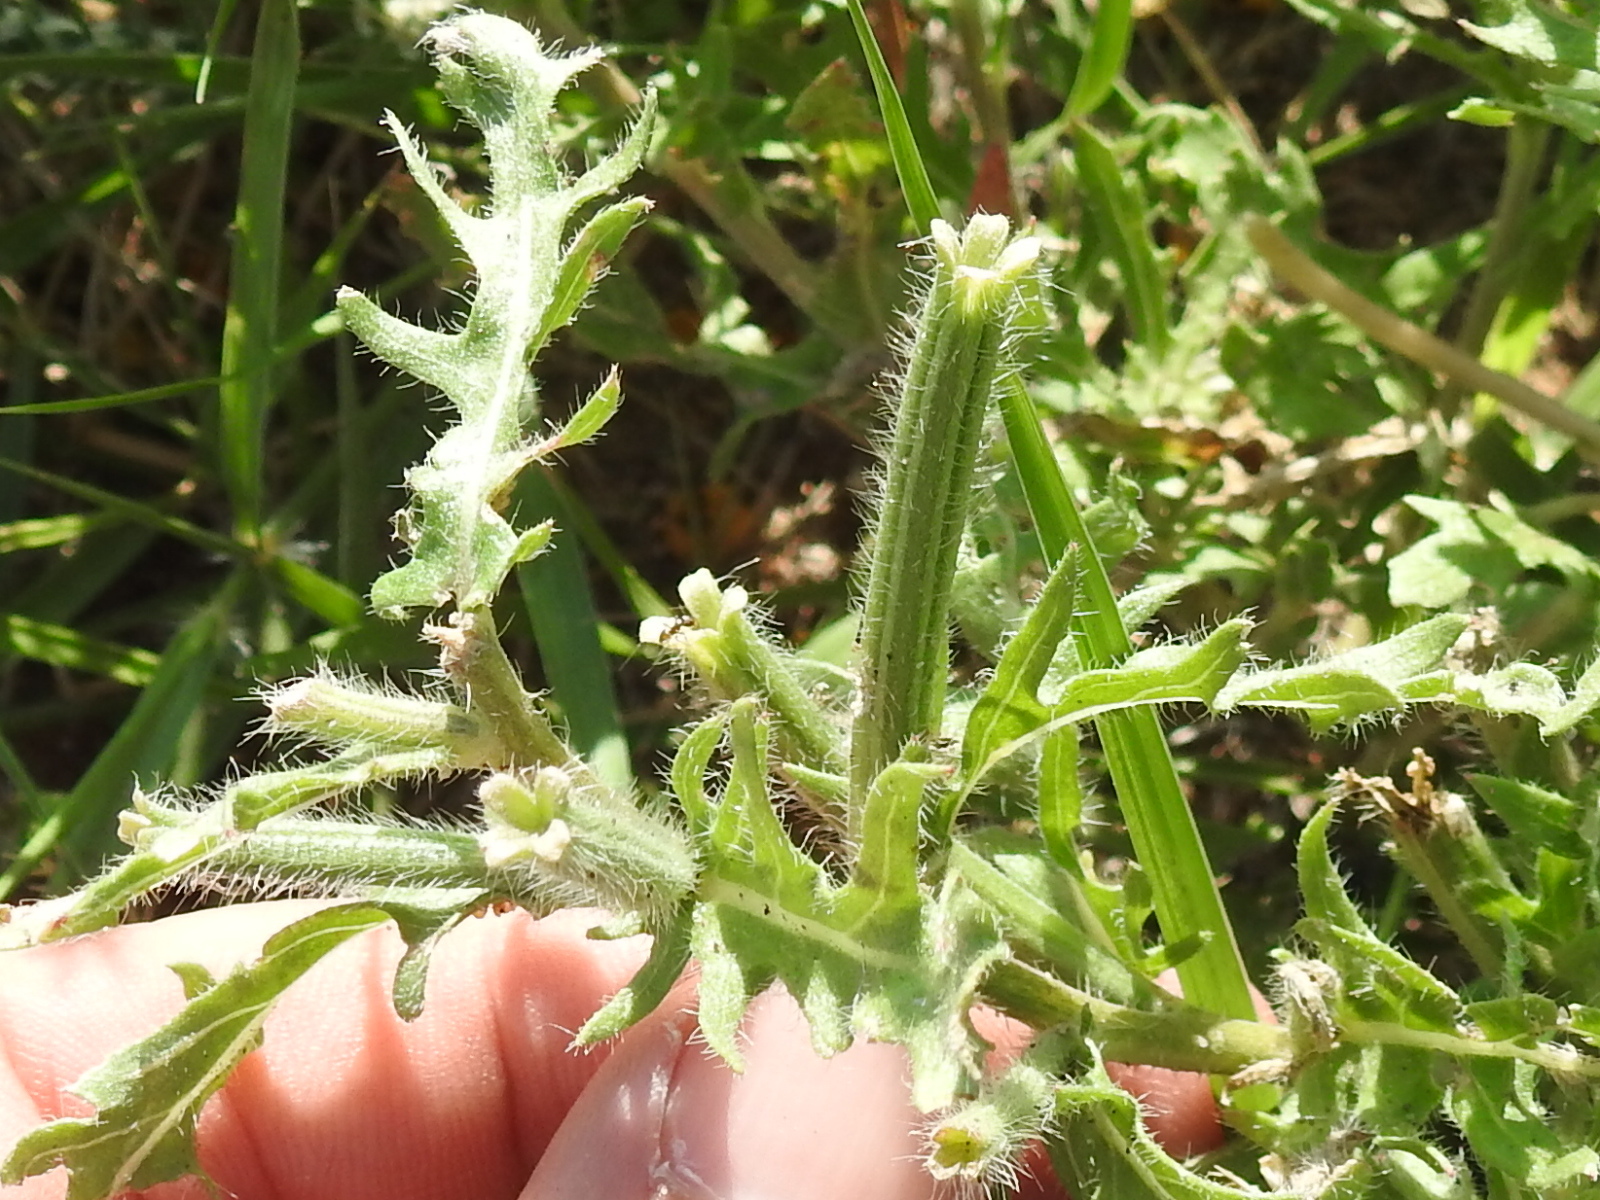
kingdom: Plantae
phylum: Tracheophyta
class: Magnoliopsida
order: Myrtales
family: Onagraceae
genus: Oenothera
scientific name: Oenothera grandis
